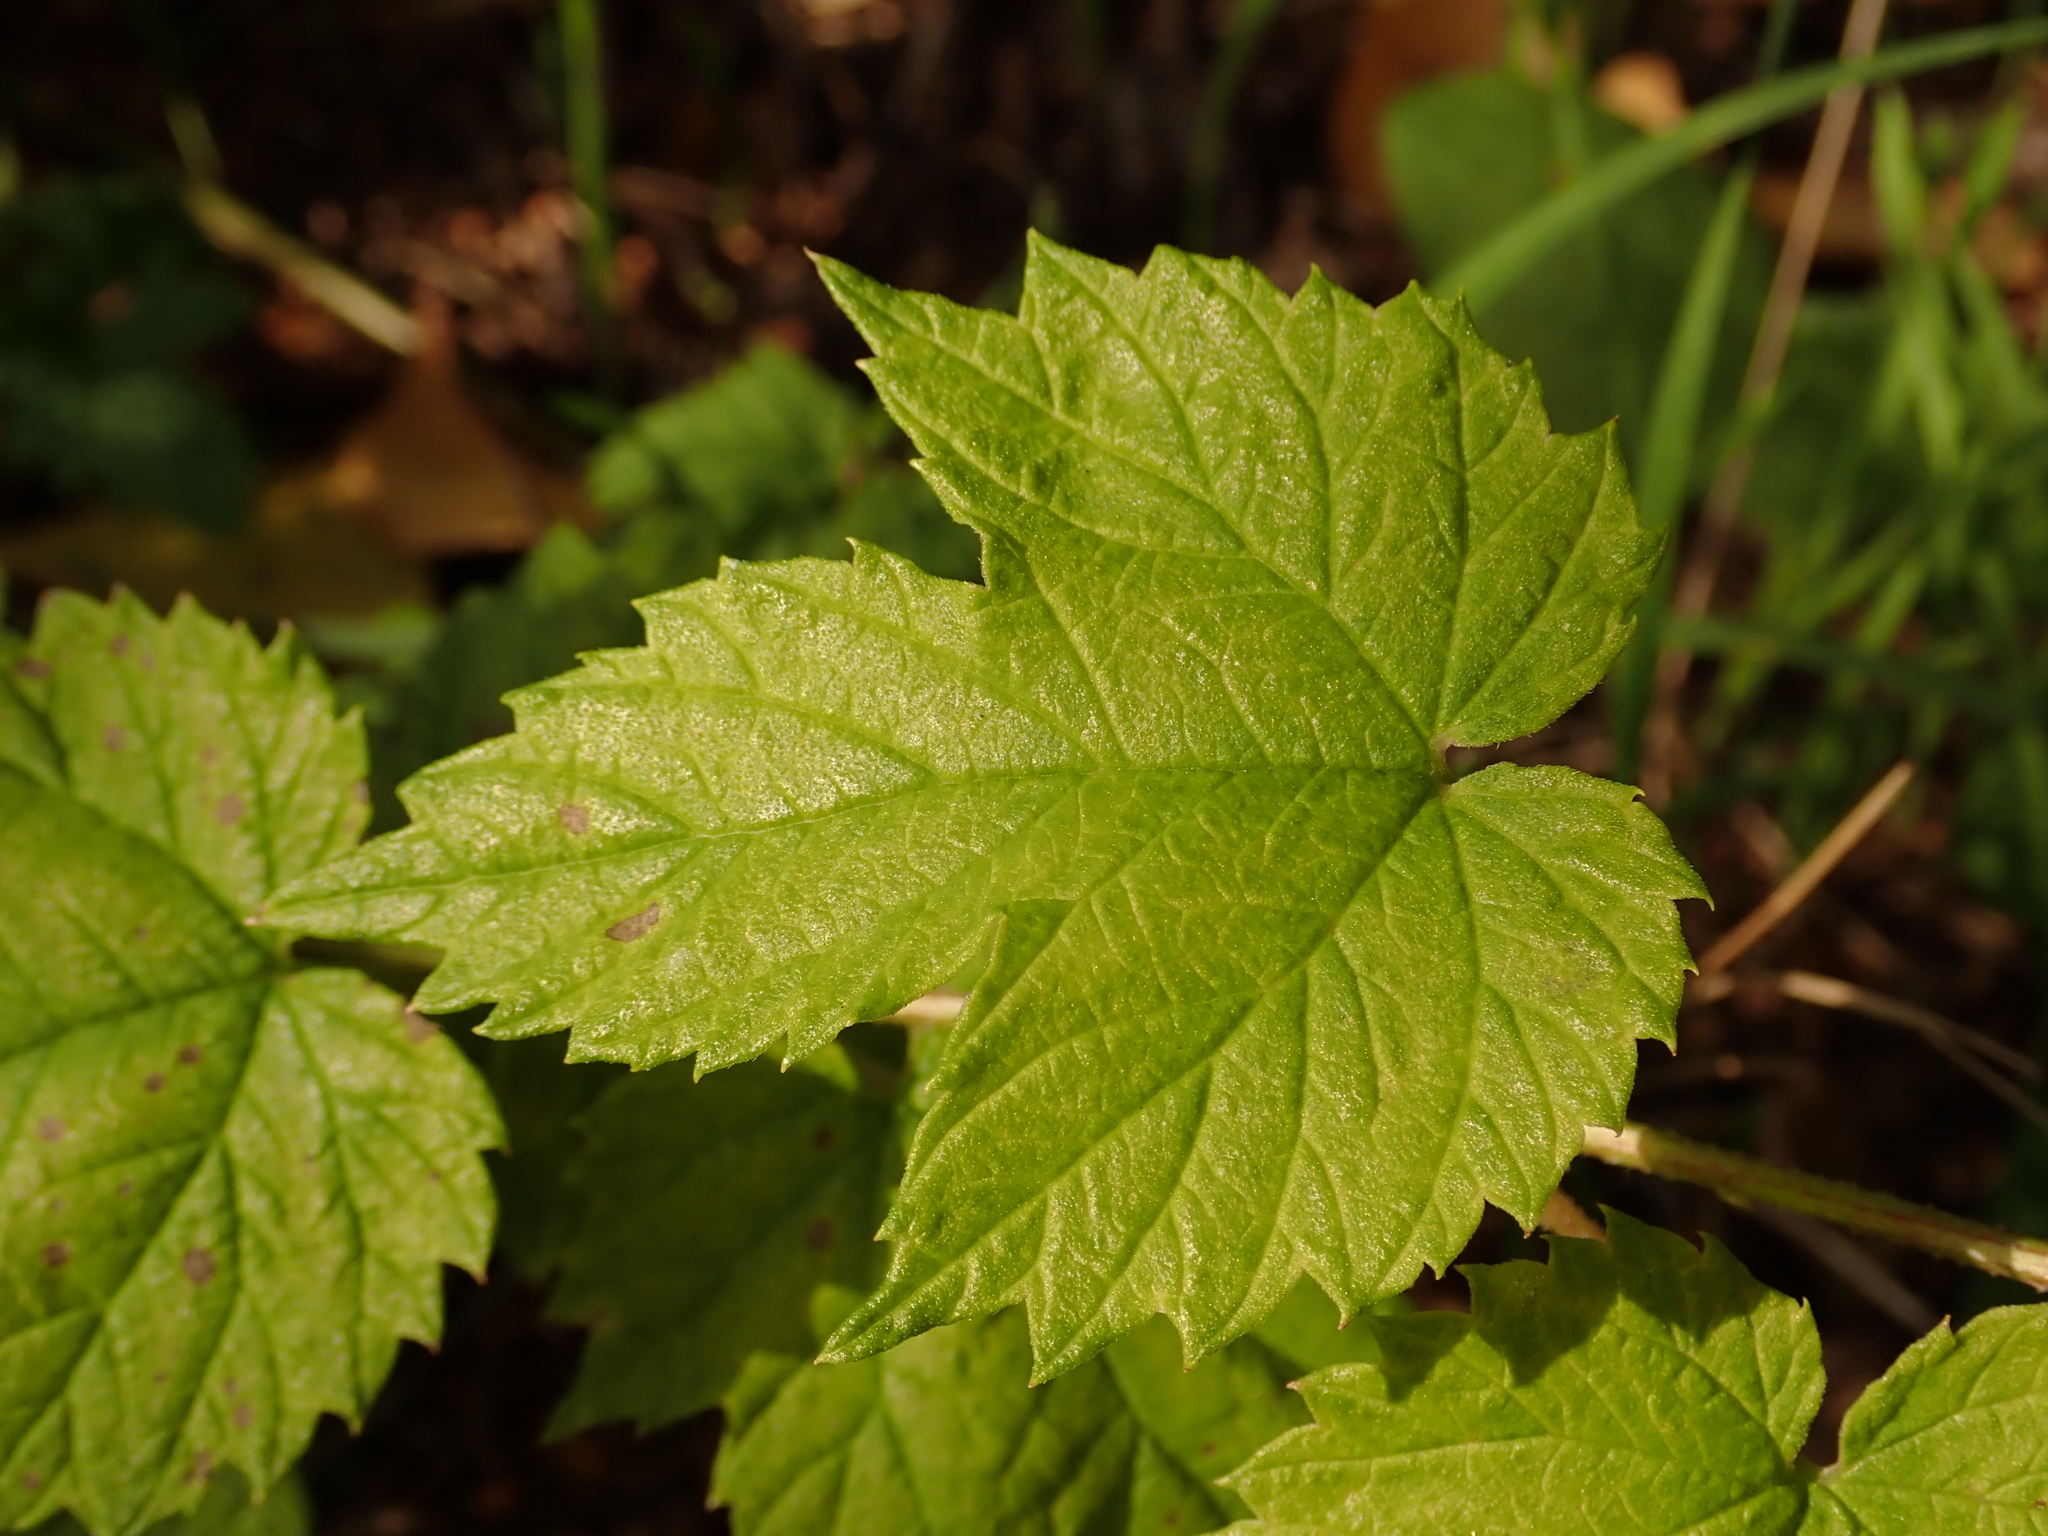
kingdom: Plantae
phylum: Tracheophyta
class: Magnoliopsida
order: Rosales
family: Cannabaceae
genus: Humulus
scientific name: Humulus lupulus
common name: Hop
